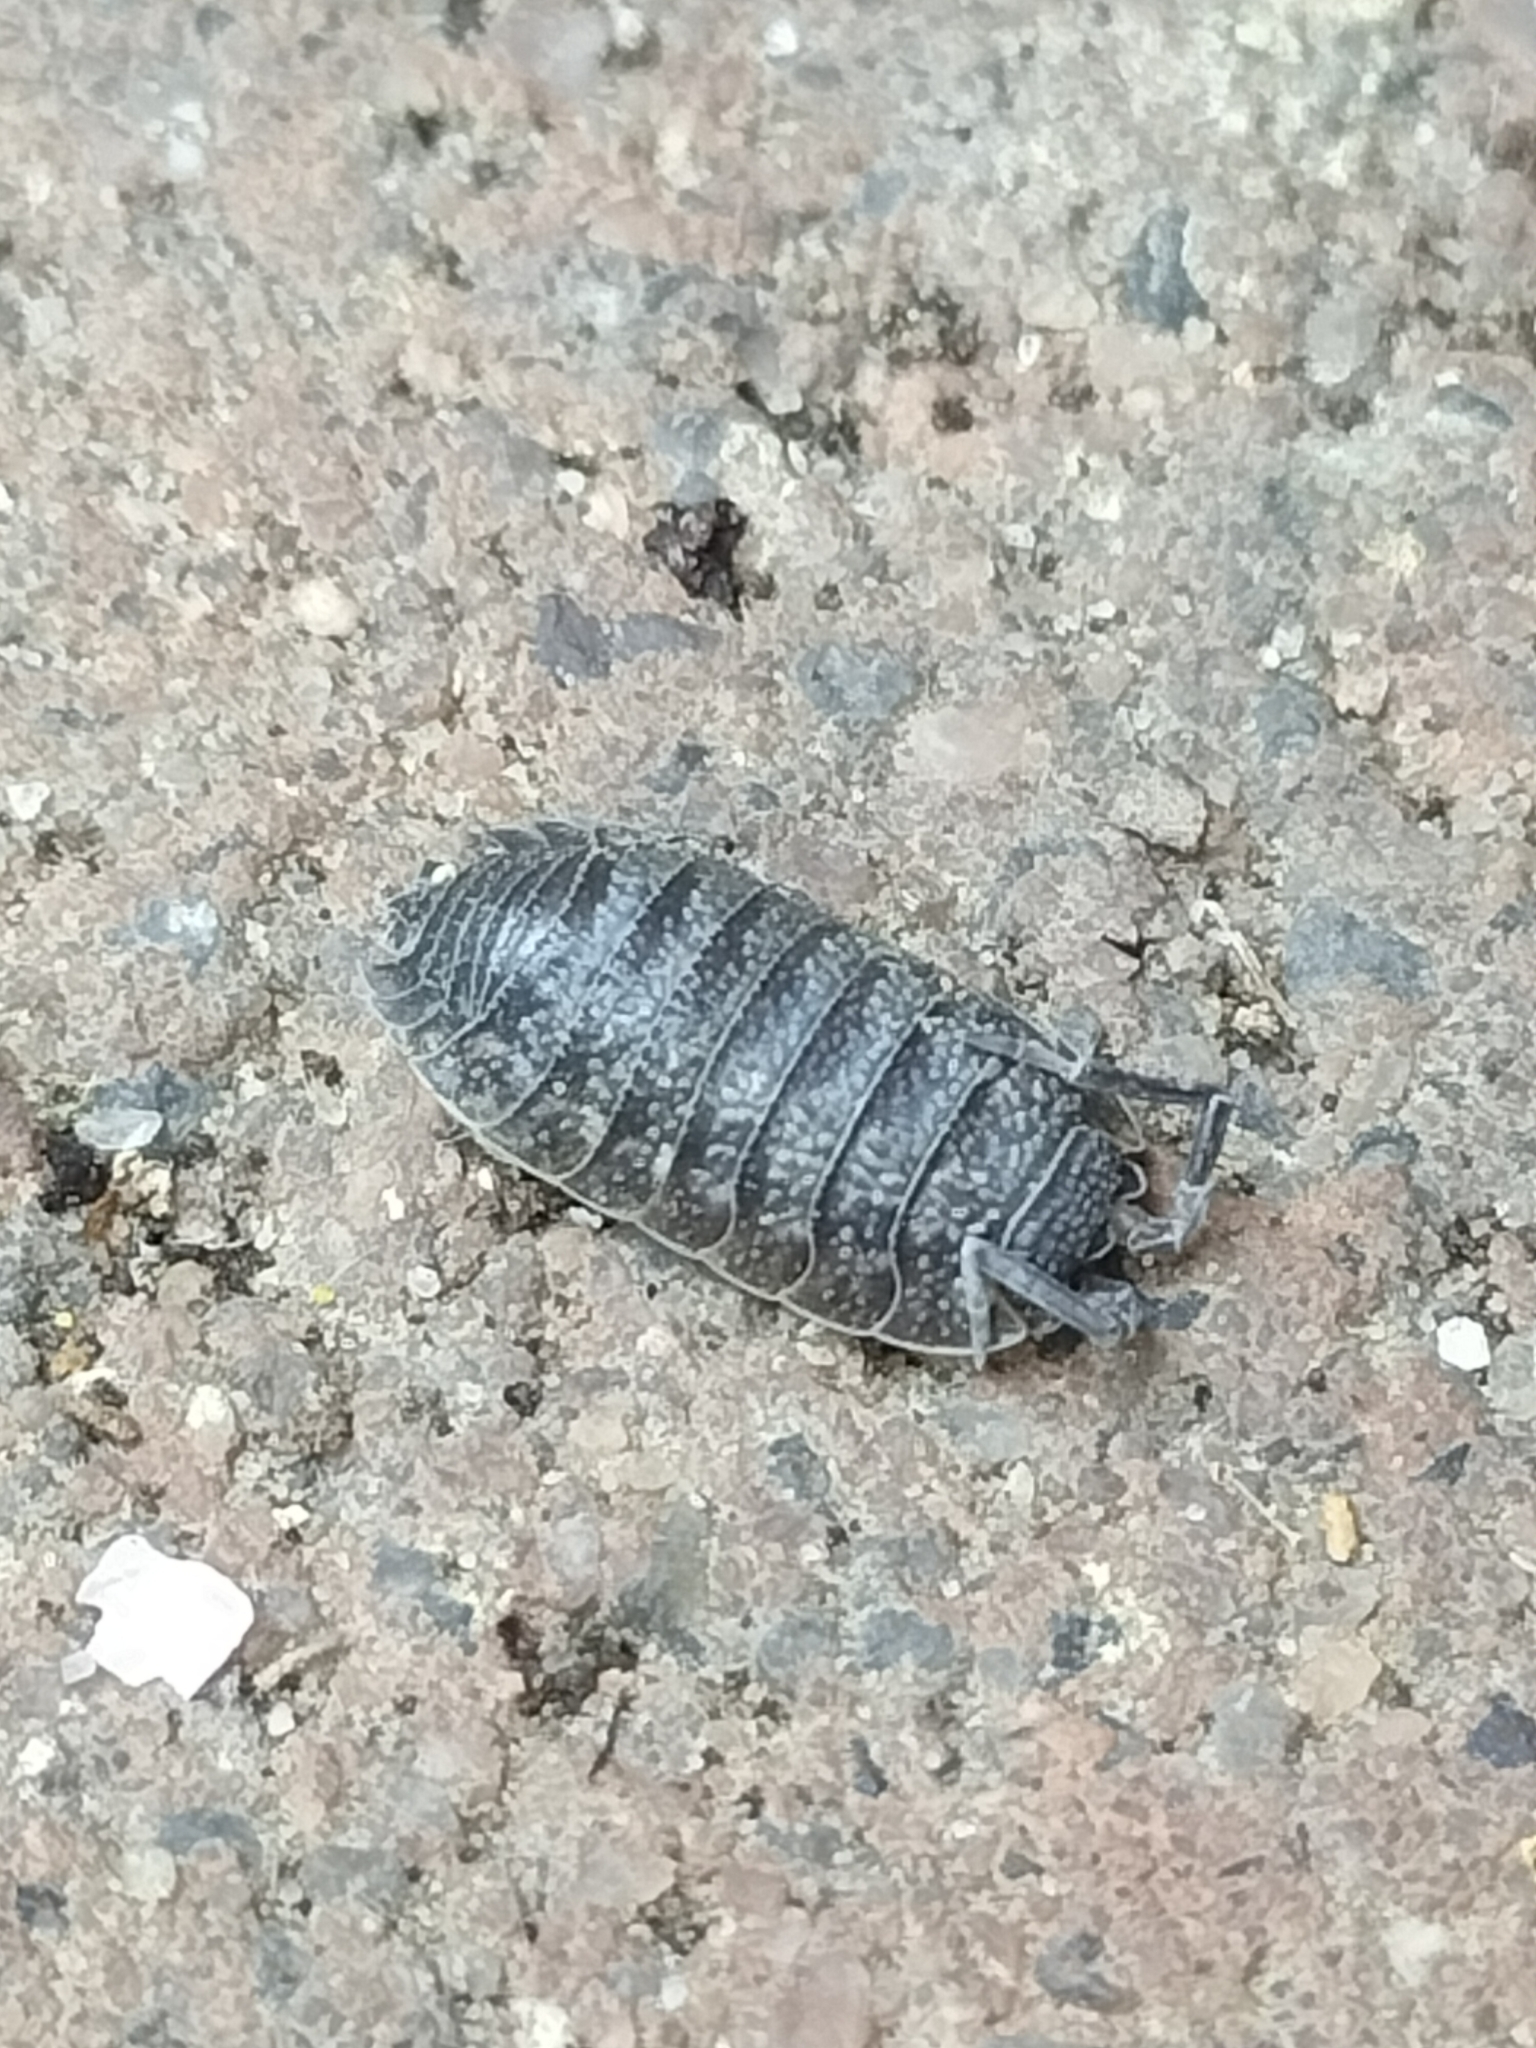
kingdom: Animalia
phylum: Arthropoda
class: Malacostraca
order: Isopoda
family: Porcellionidae
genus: Porcellio
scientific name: Porcellio scaber
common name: Common rough woodlouse
